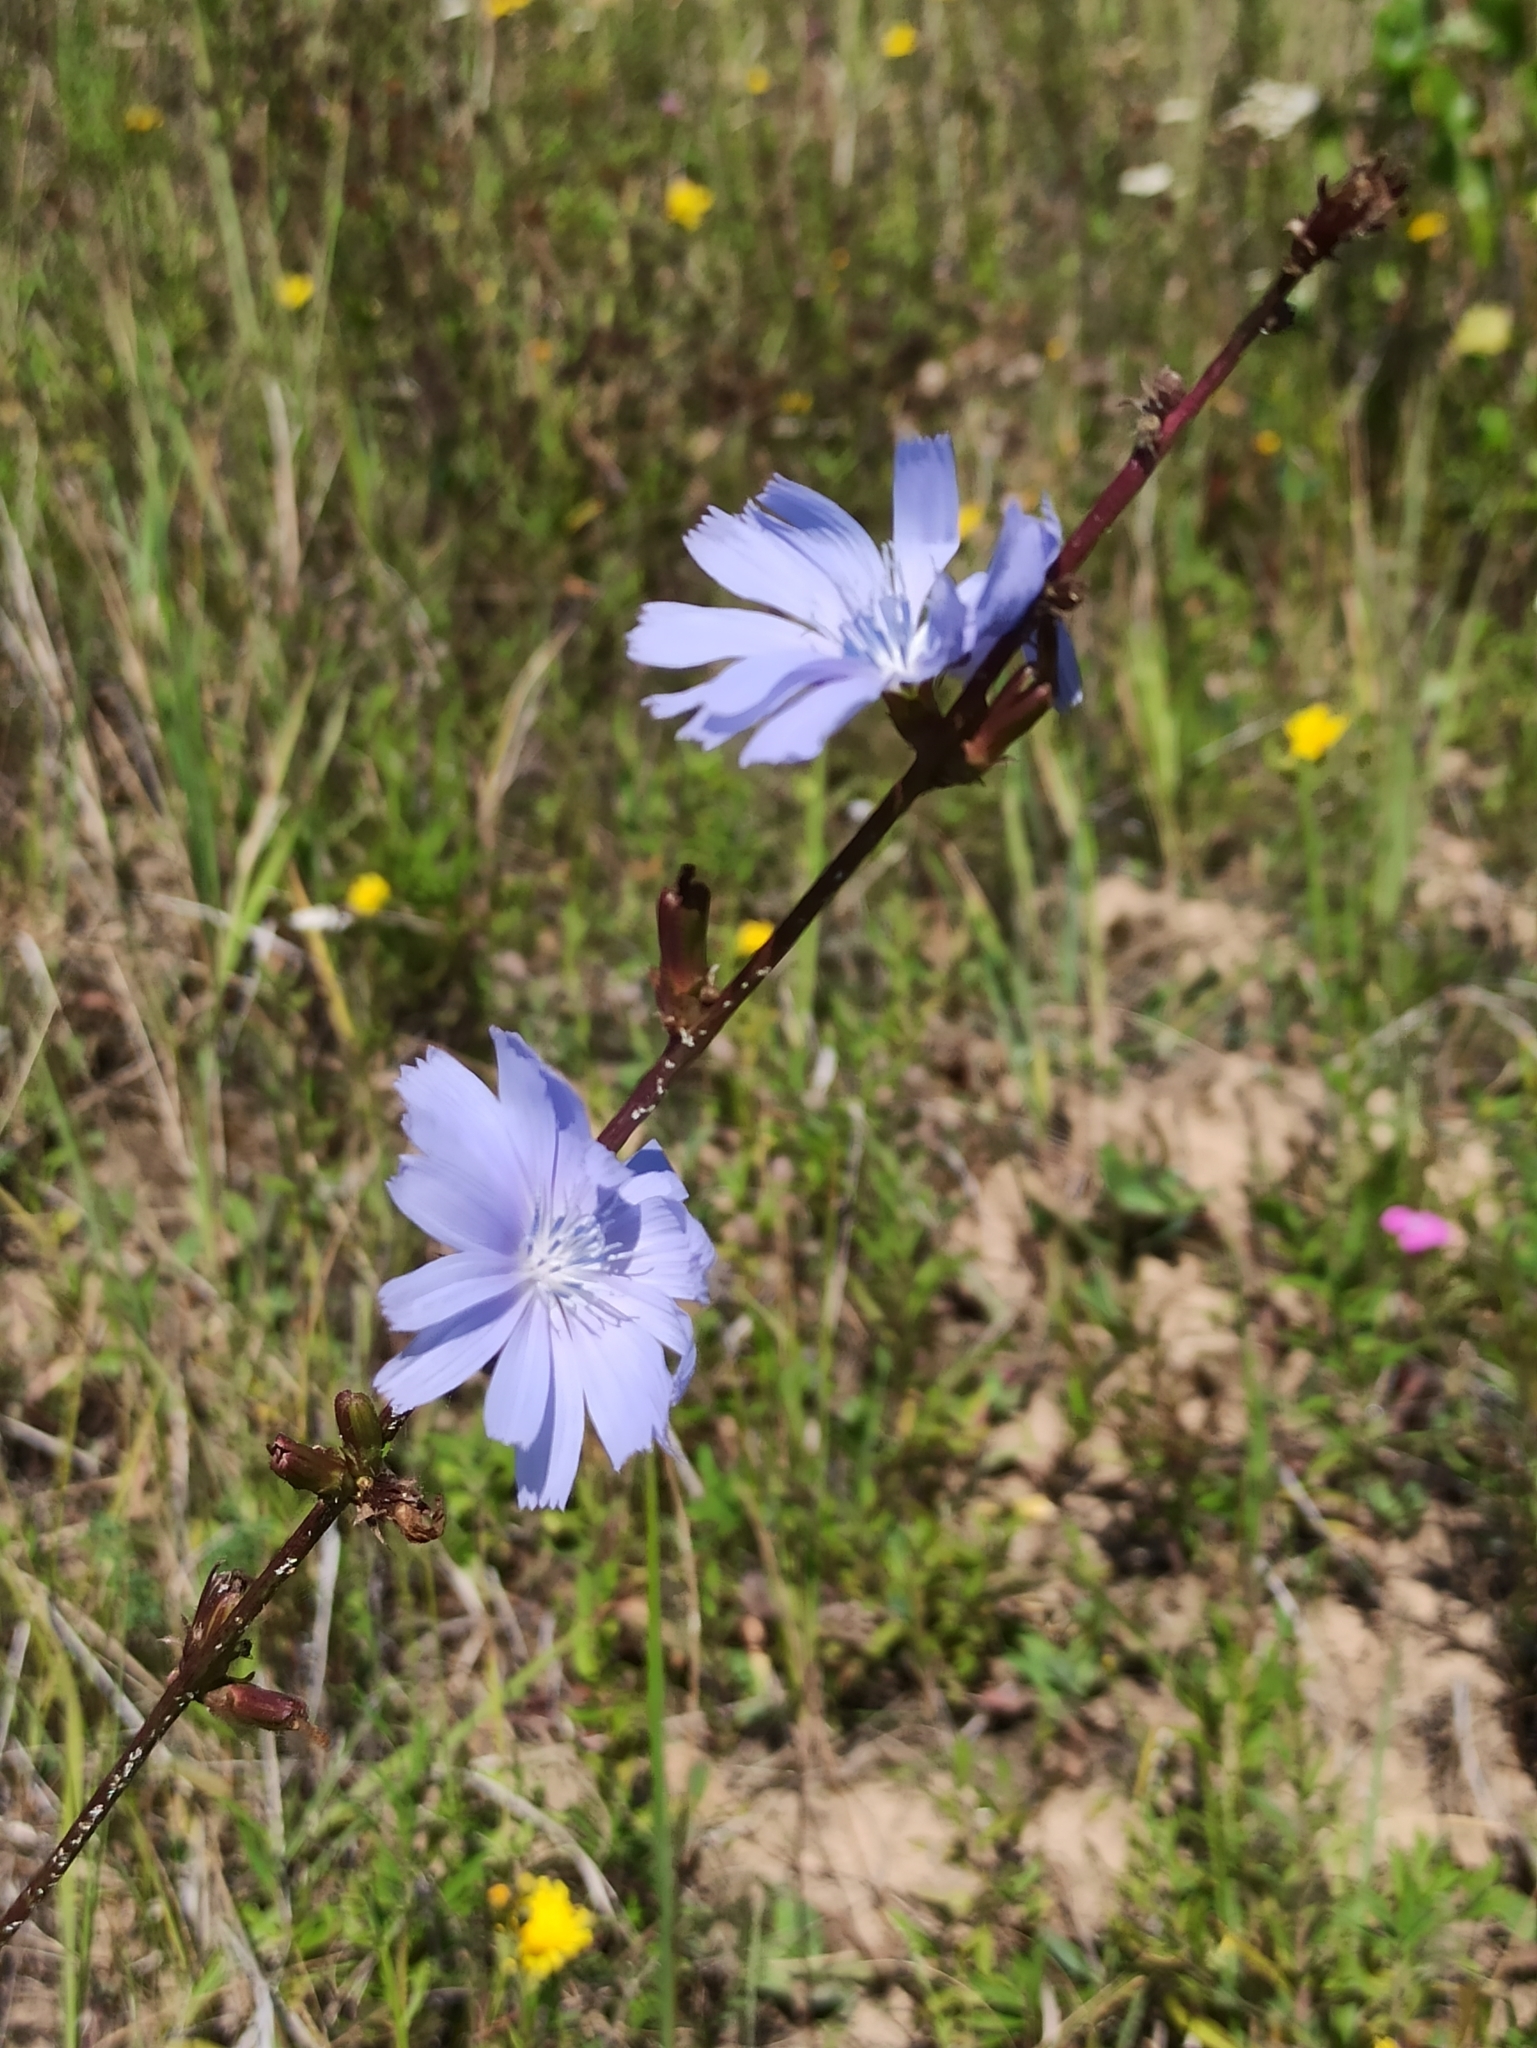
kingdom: Plantae
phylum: Tracheophyta
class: Magnoliopsida
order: Asterales
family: Asteraceae
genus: Cichorium
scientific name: Cichorium intybus
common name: Chicory
